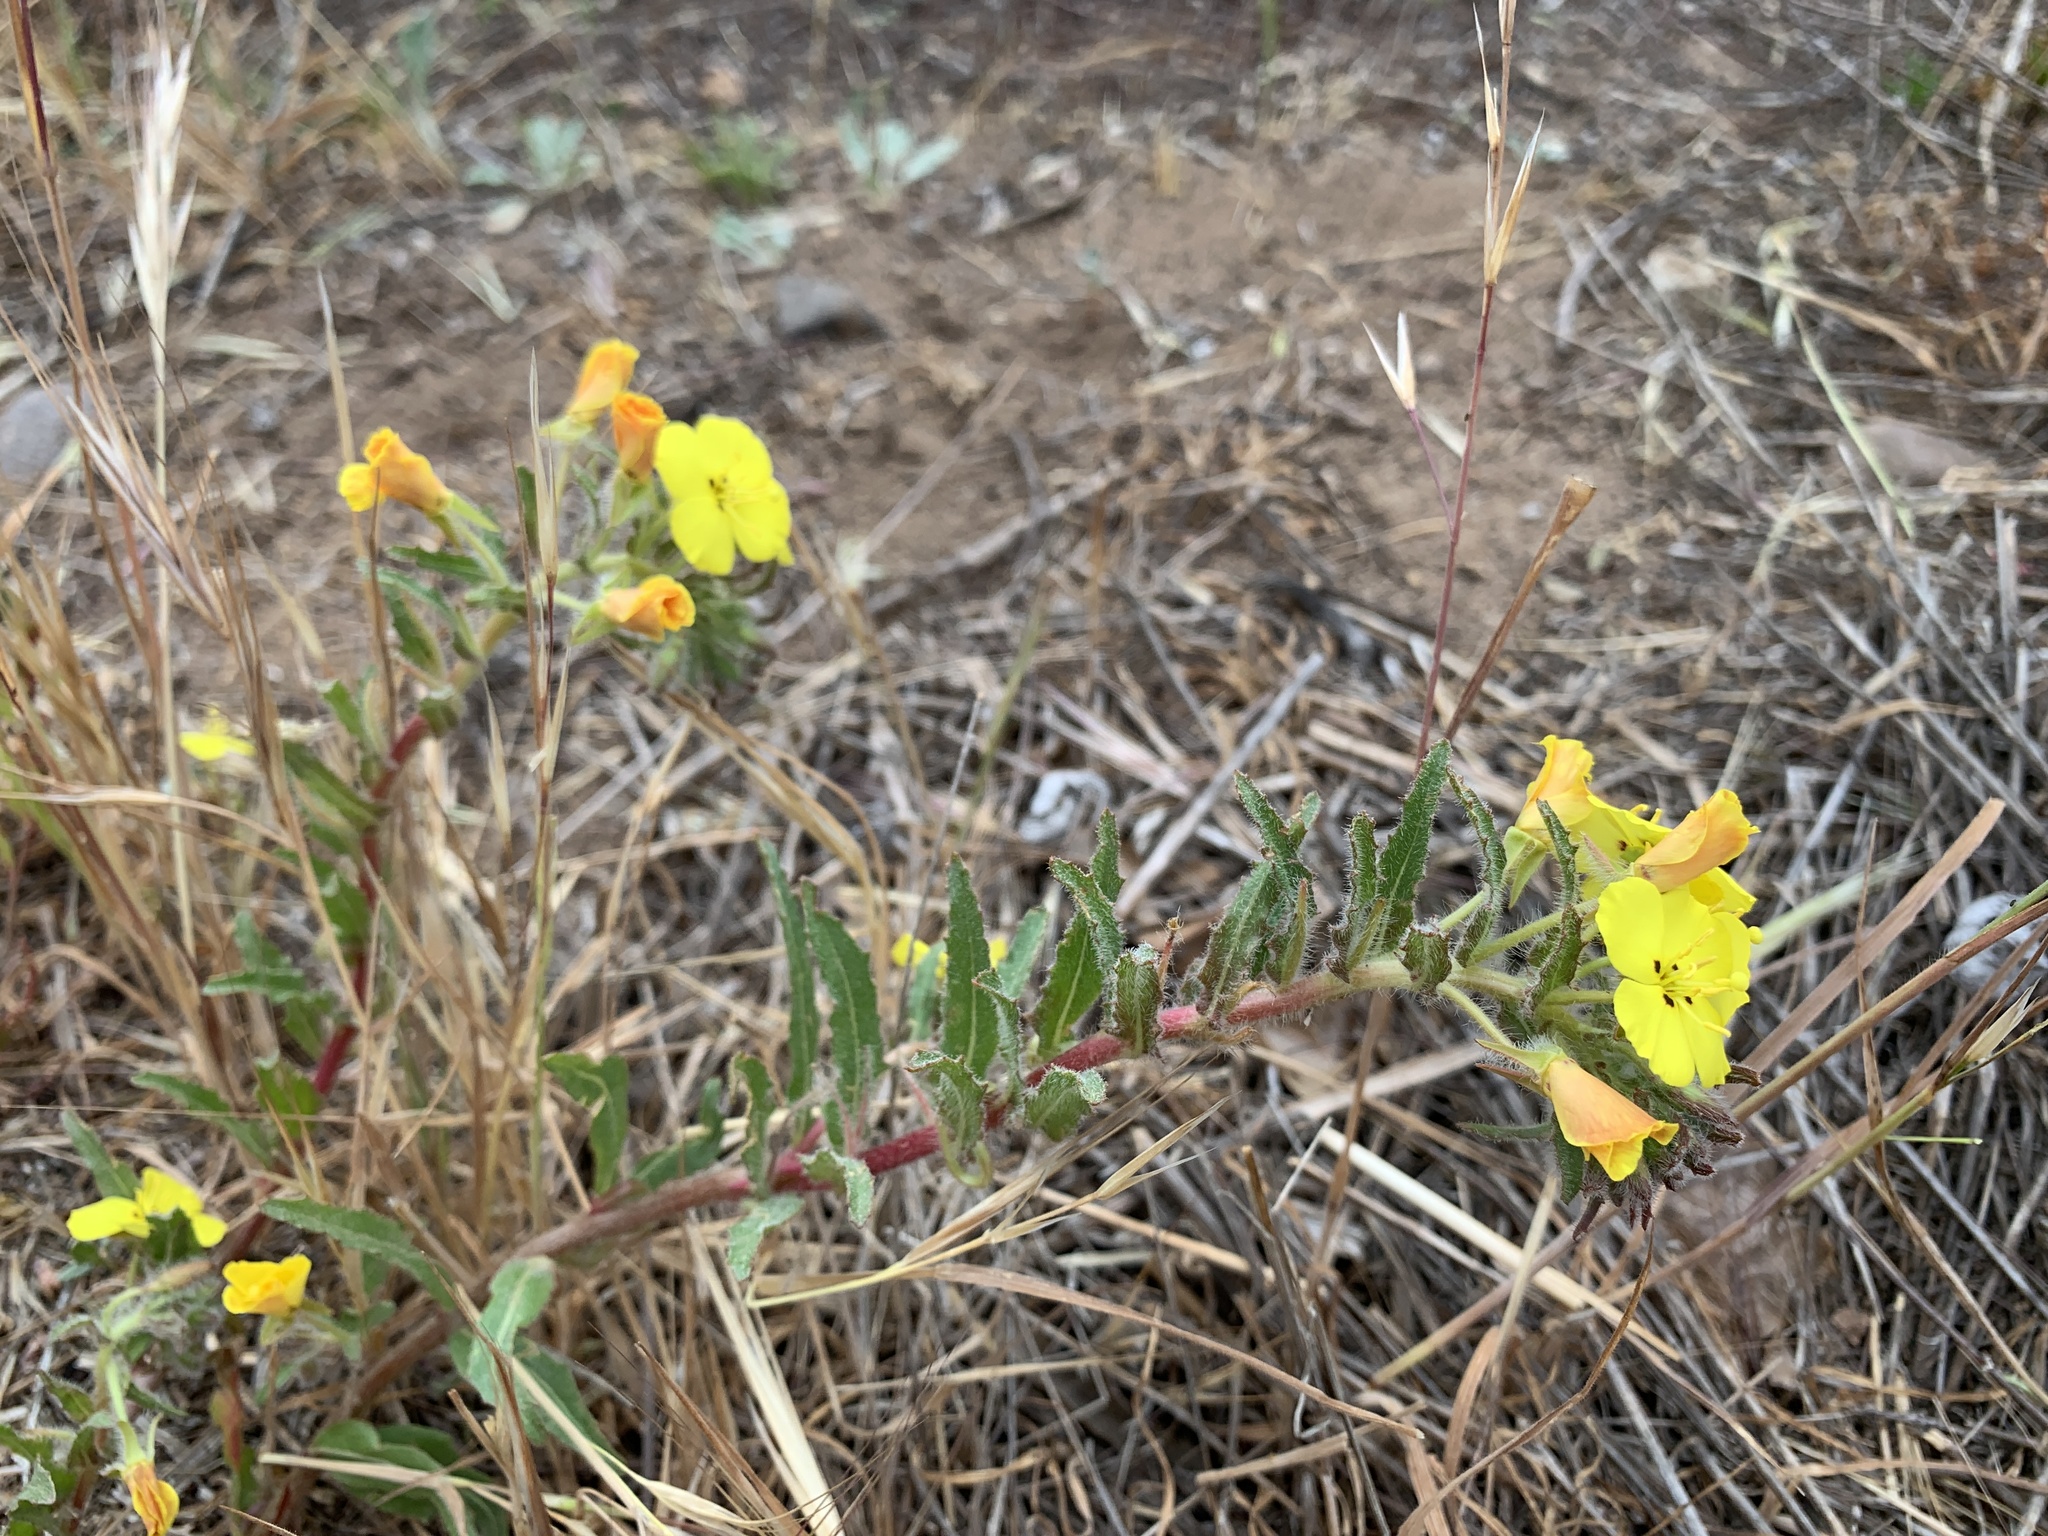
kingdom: Plantae
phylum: Tracheophyta
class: Magnoliopsida
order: Myrtales
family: Onagraceae
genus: Camissoniopsis
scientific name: Camissoniopsis bistorta
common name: Southern suncup
